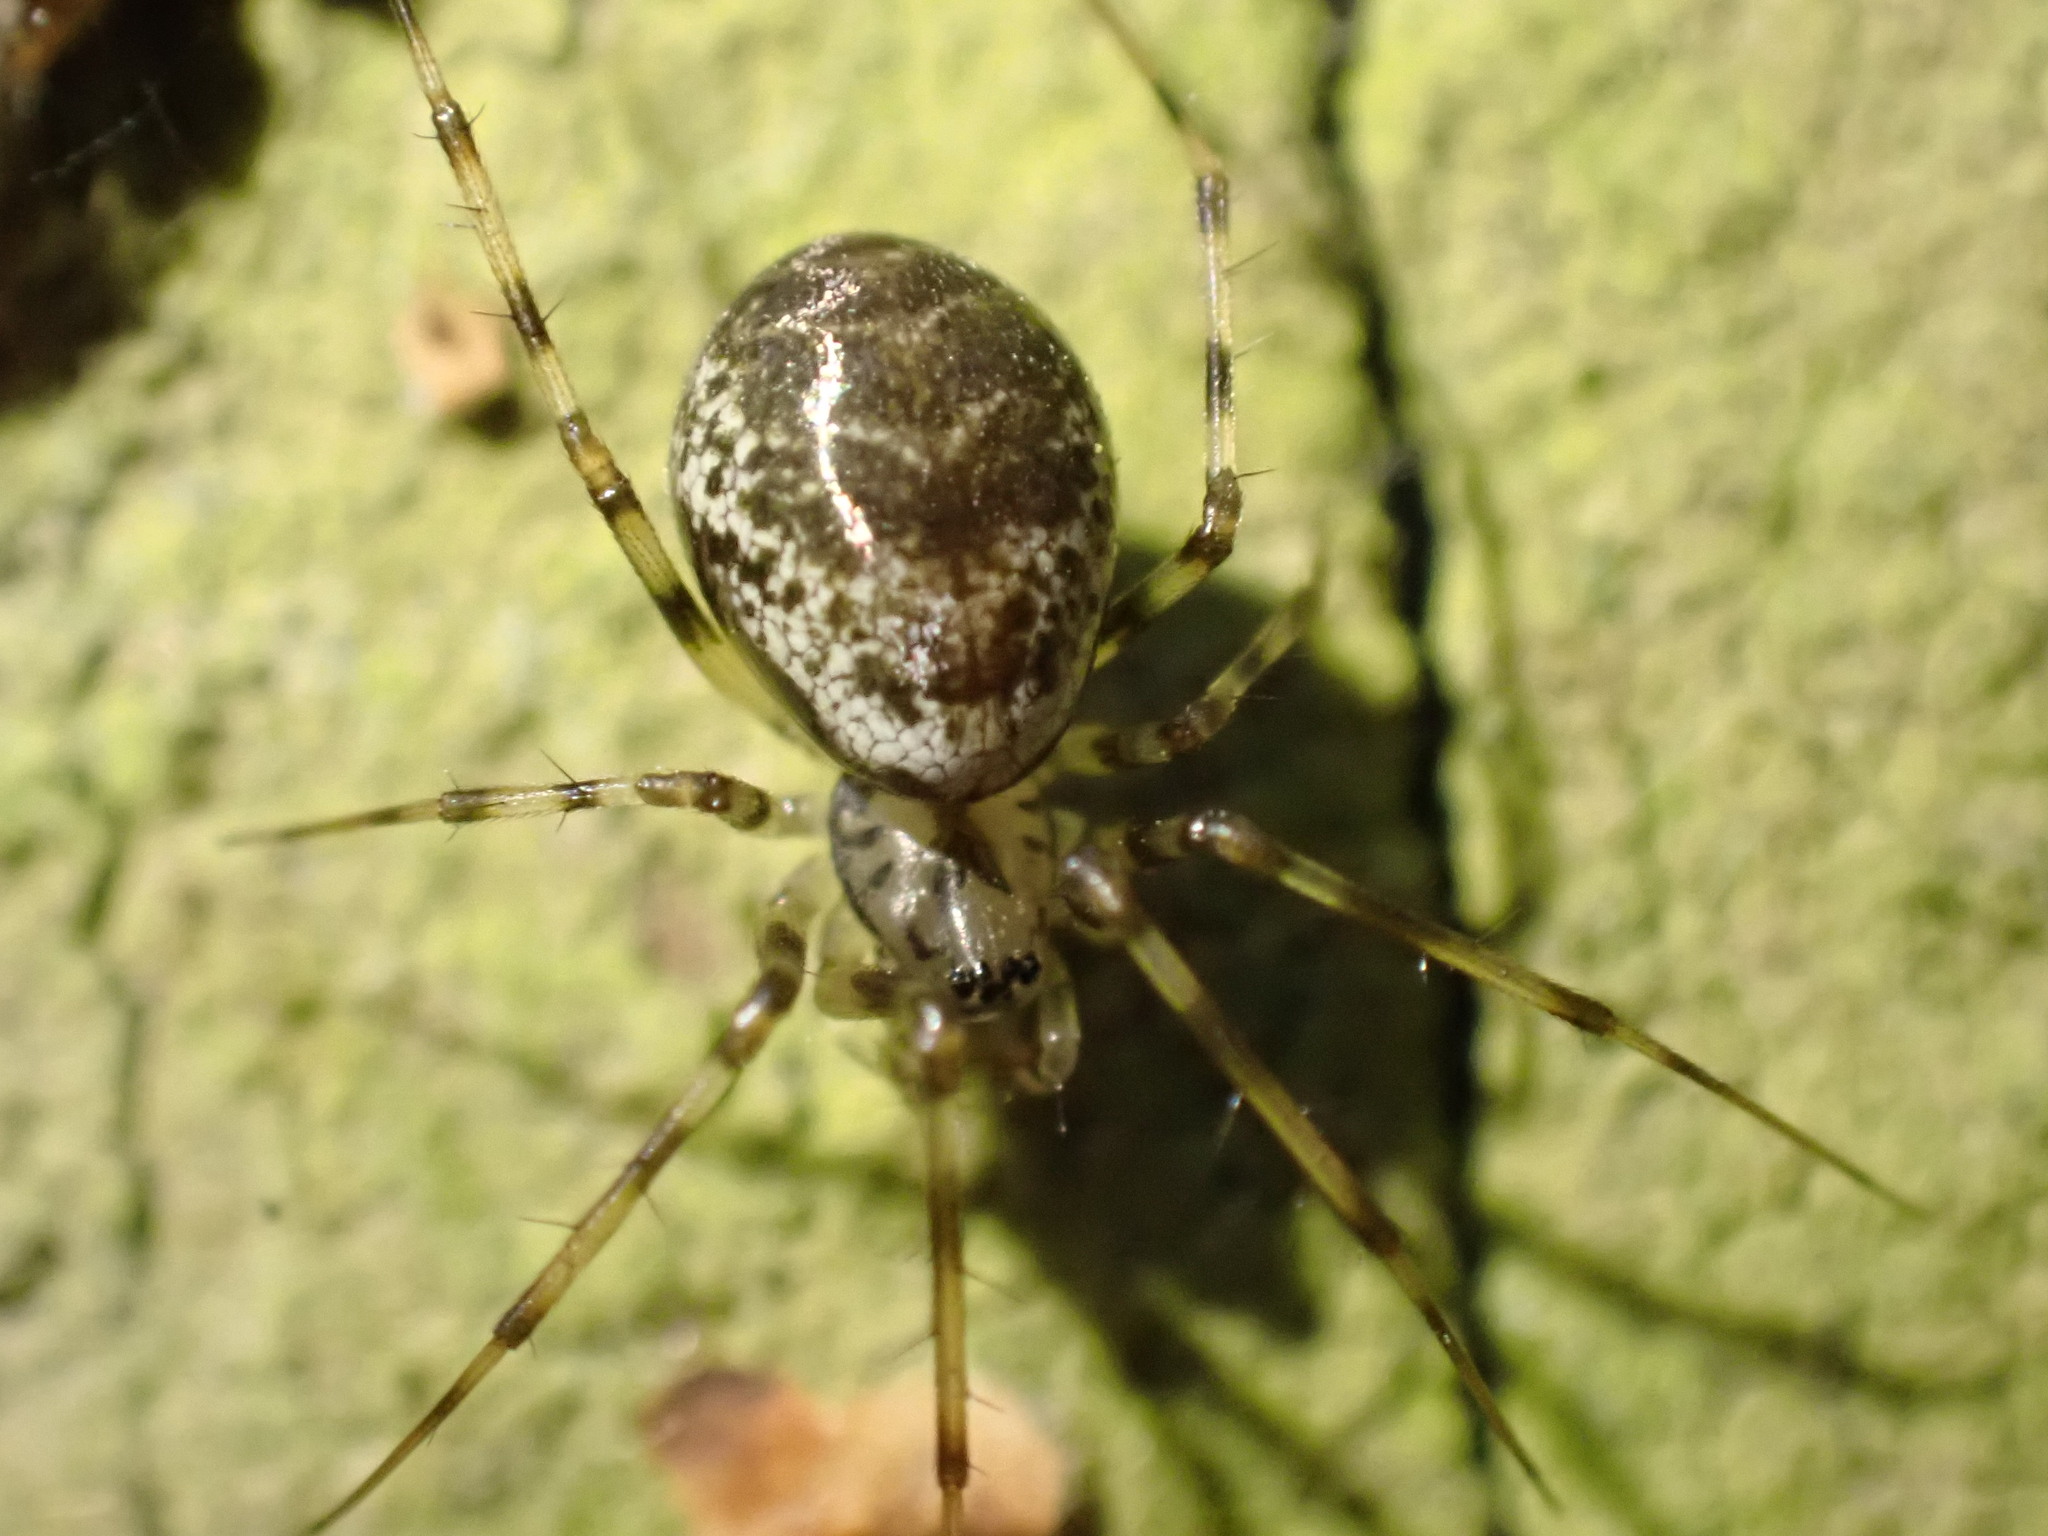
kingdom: Animalia
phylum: Arthropoda
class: Arachnida
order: Araneae
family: Linyphiidae
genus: Drapetisca
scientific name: Drapetisca socialis
